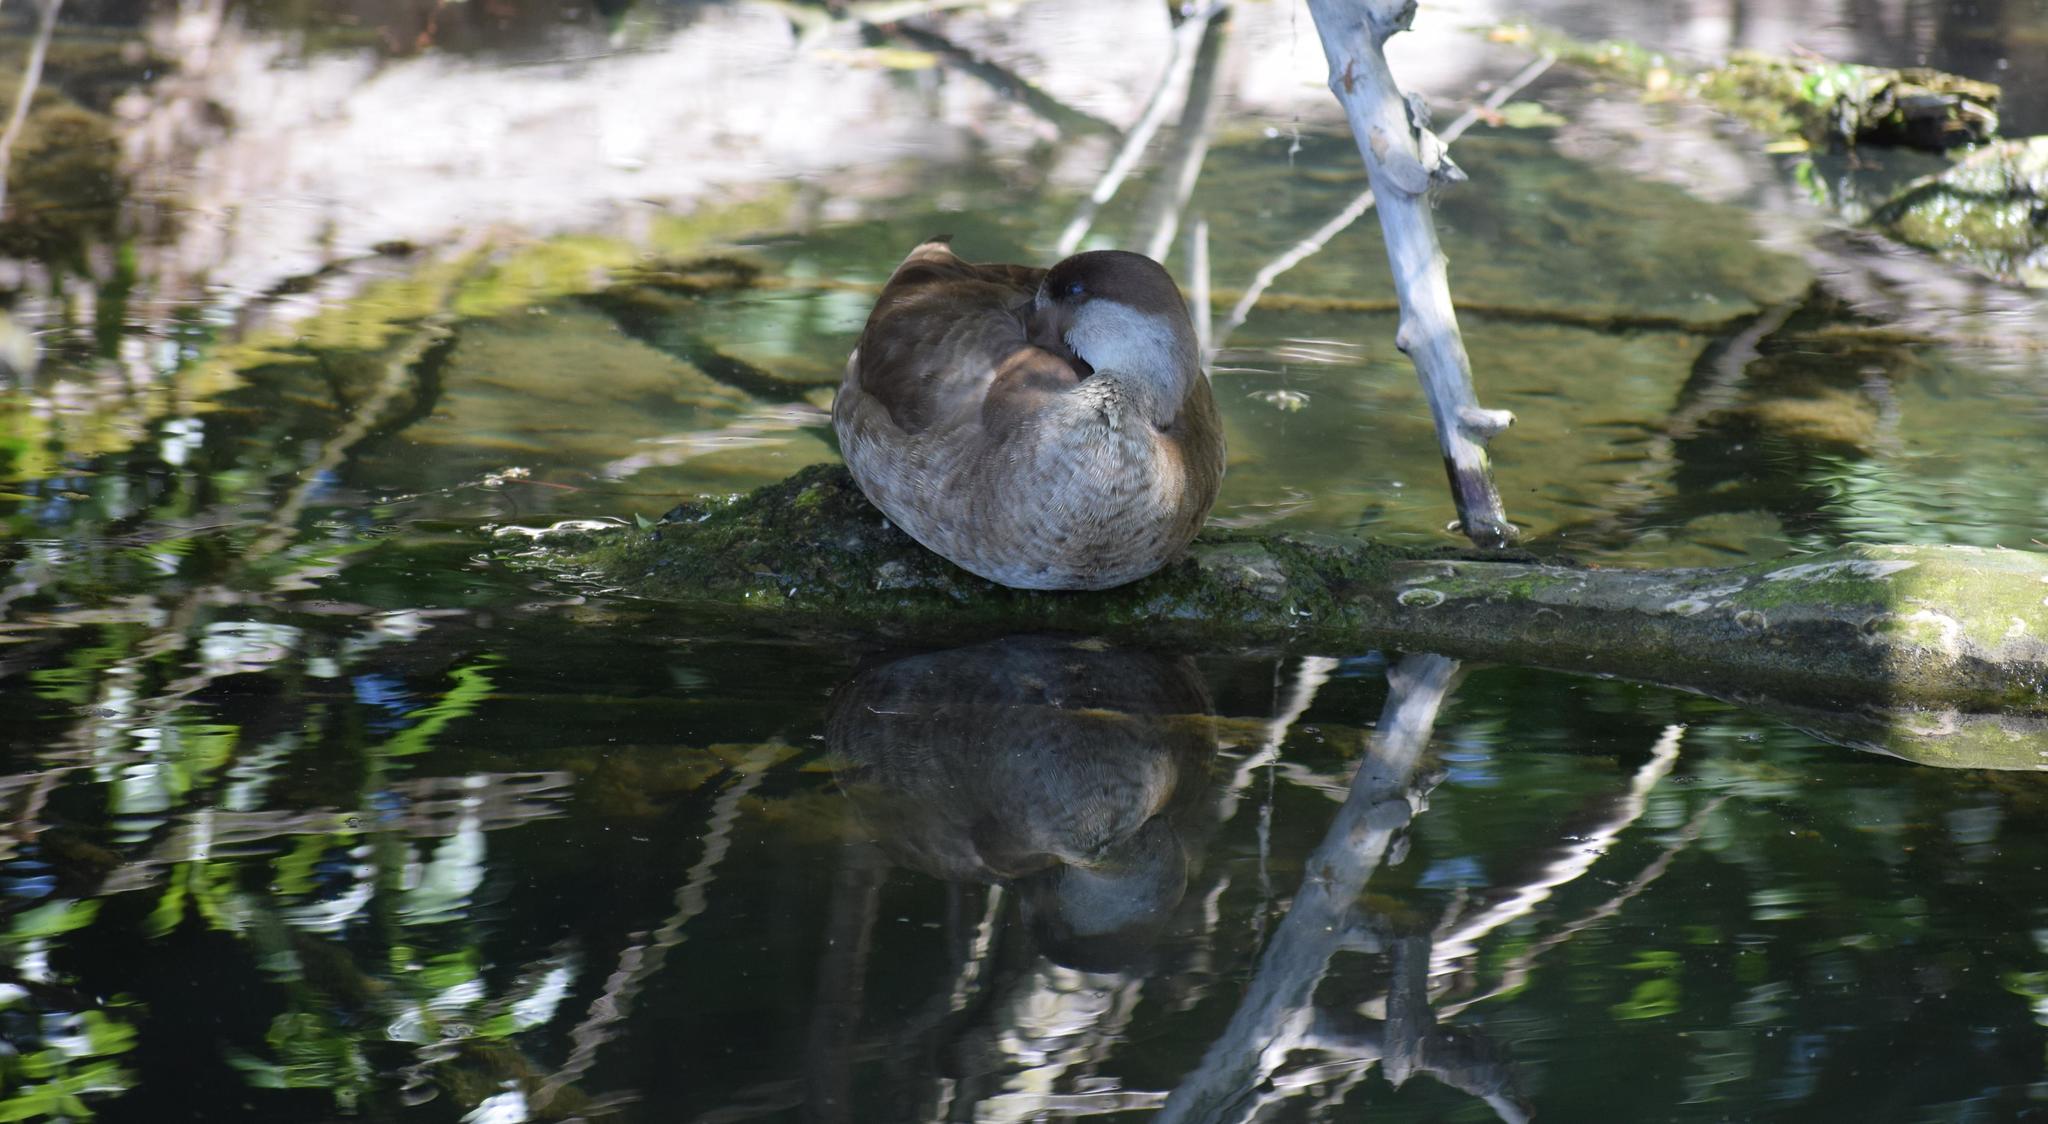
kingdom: Animalia
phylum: Chordata
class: Aves
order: Anseriformes
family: Anatidae
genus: Netta
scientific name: Netta rufina
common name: Red-crested pochard
